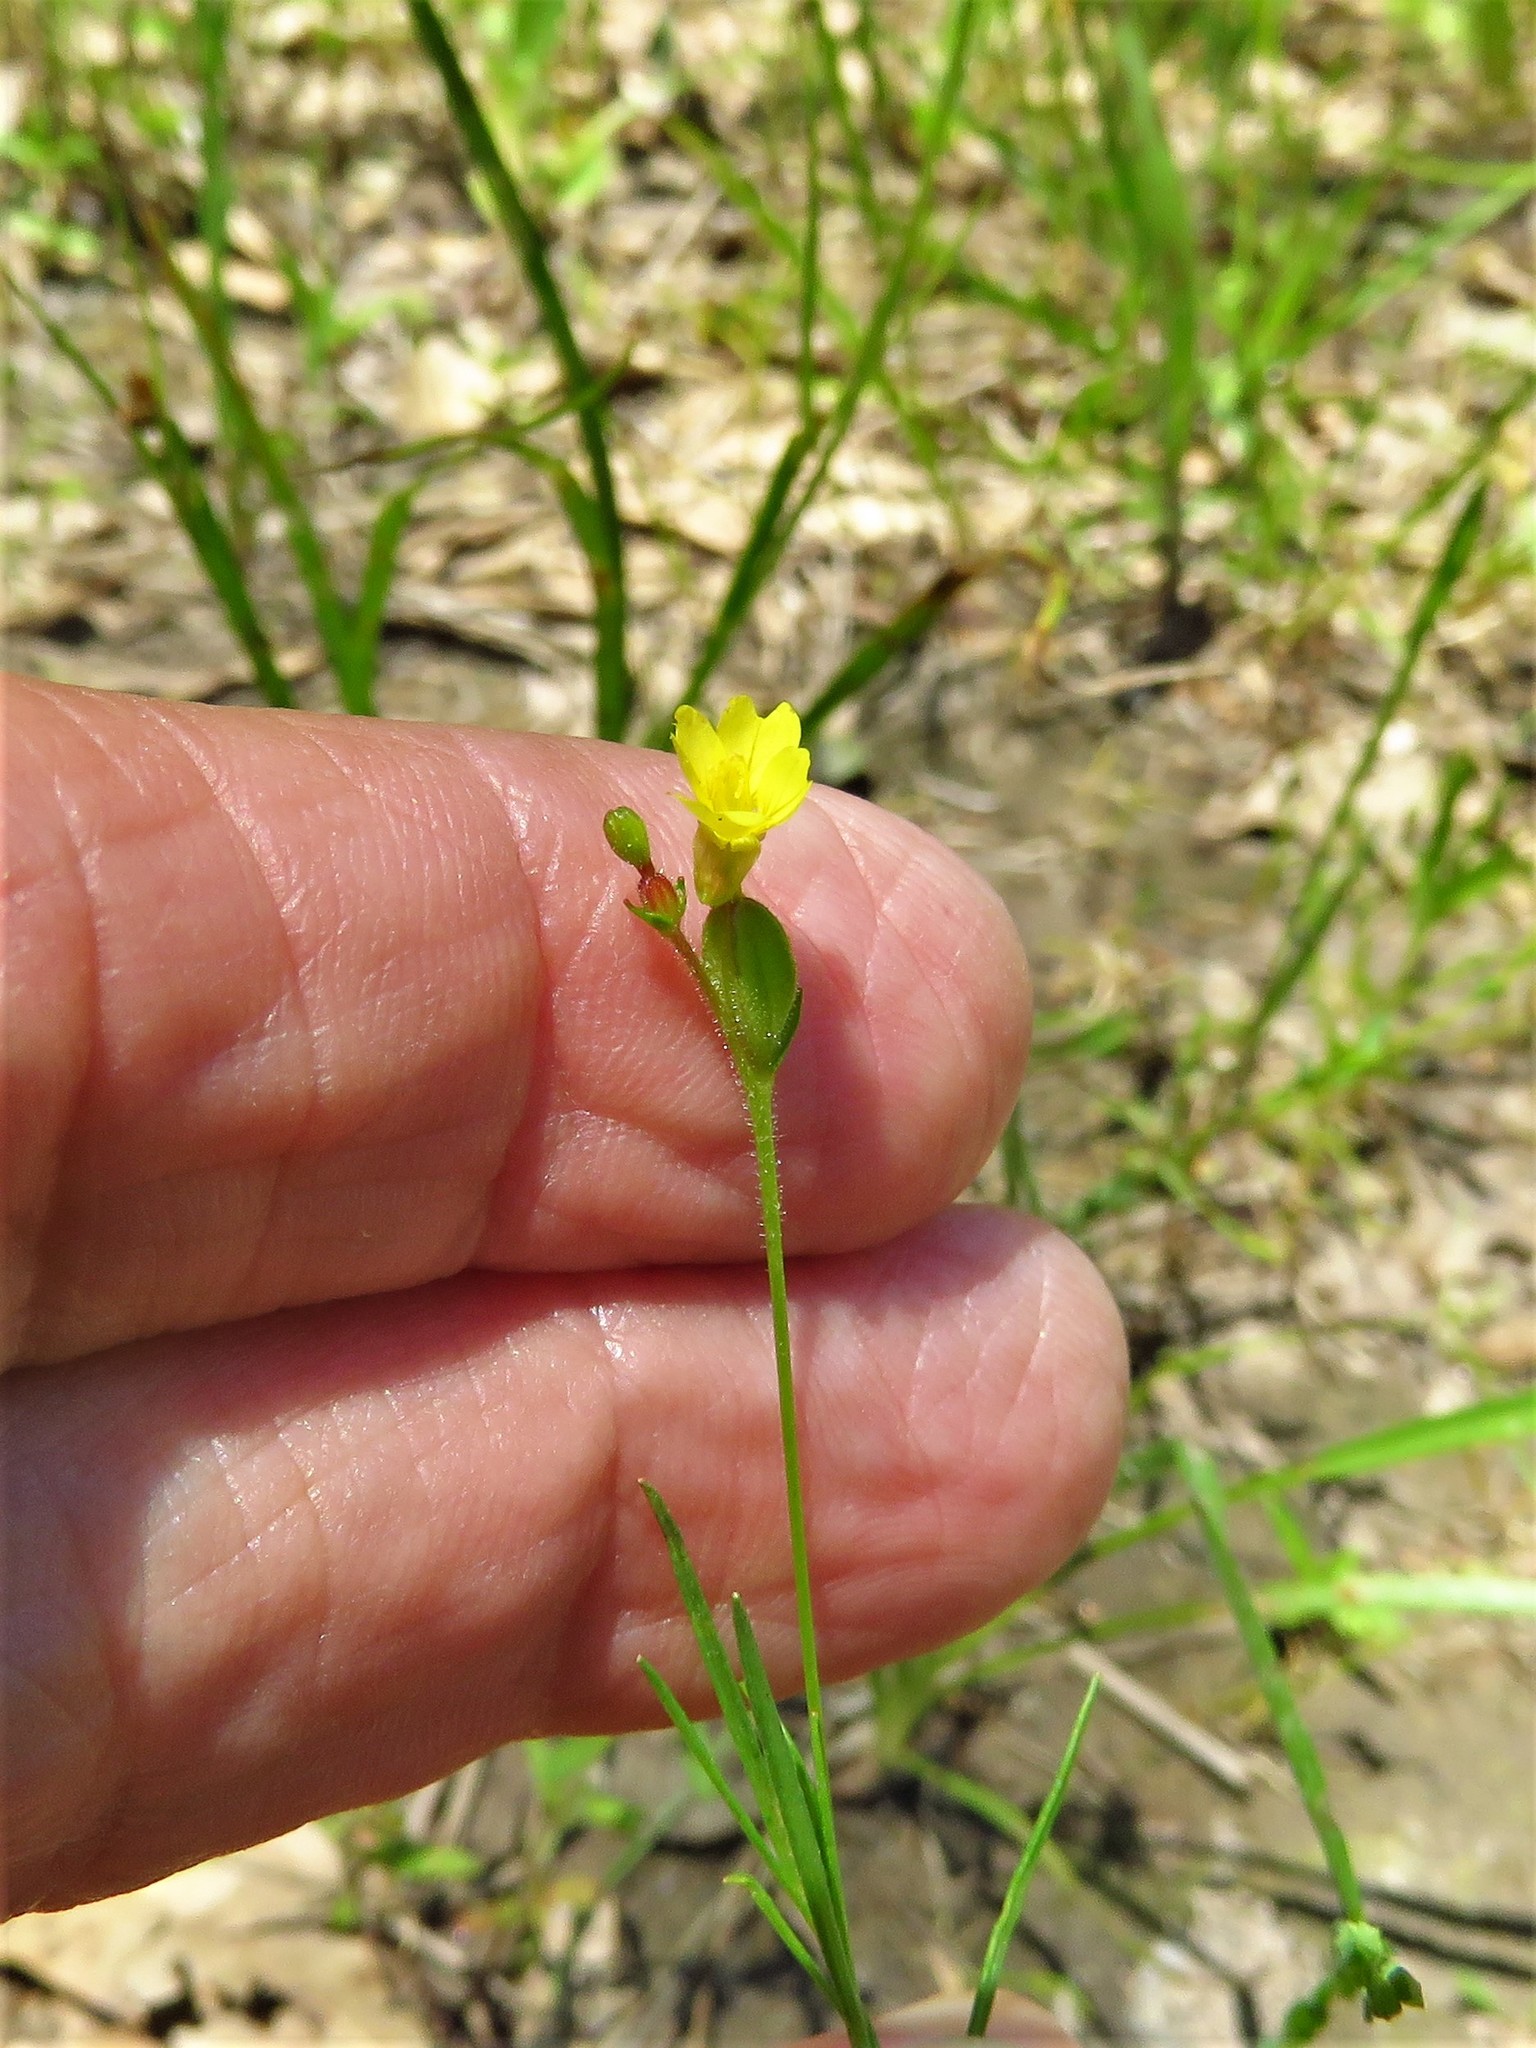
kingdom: Plantae
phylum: Tracheophyta
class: Magnoliopsida
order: Myrtales
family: Onagraceae
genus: Oenothera
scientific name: Oenothera linifolia
